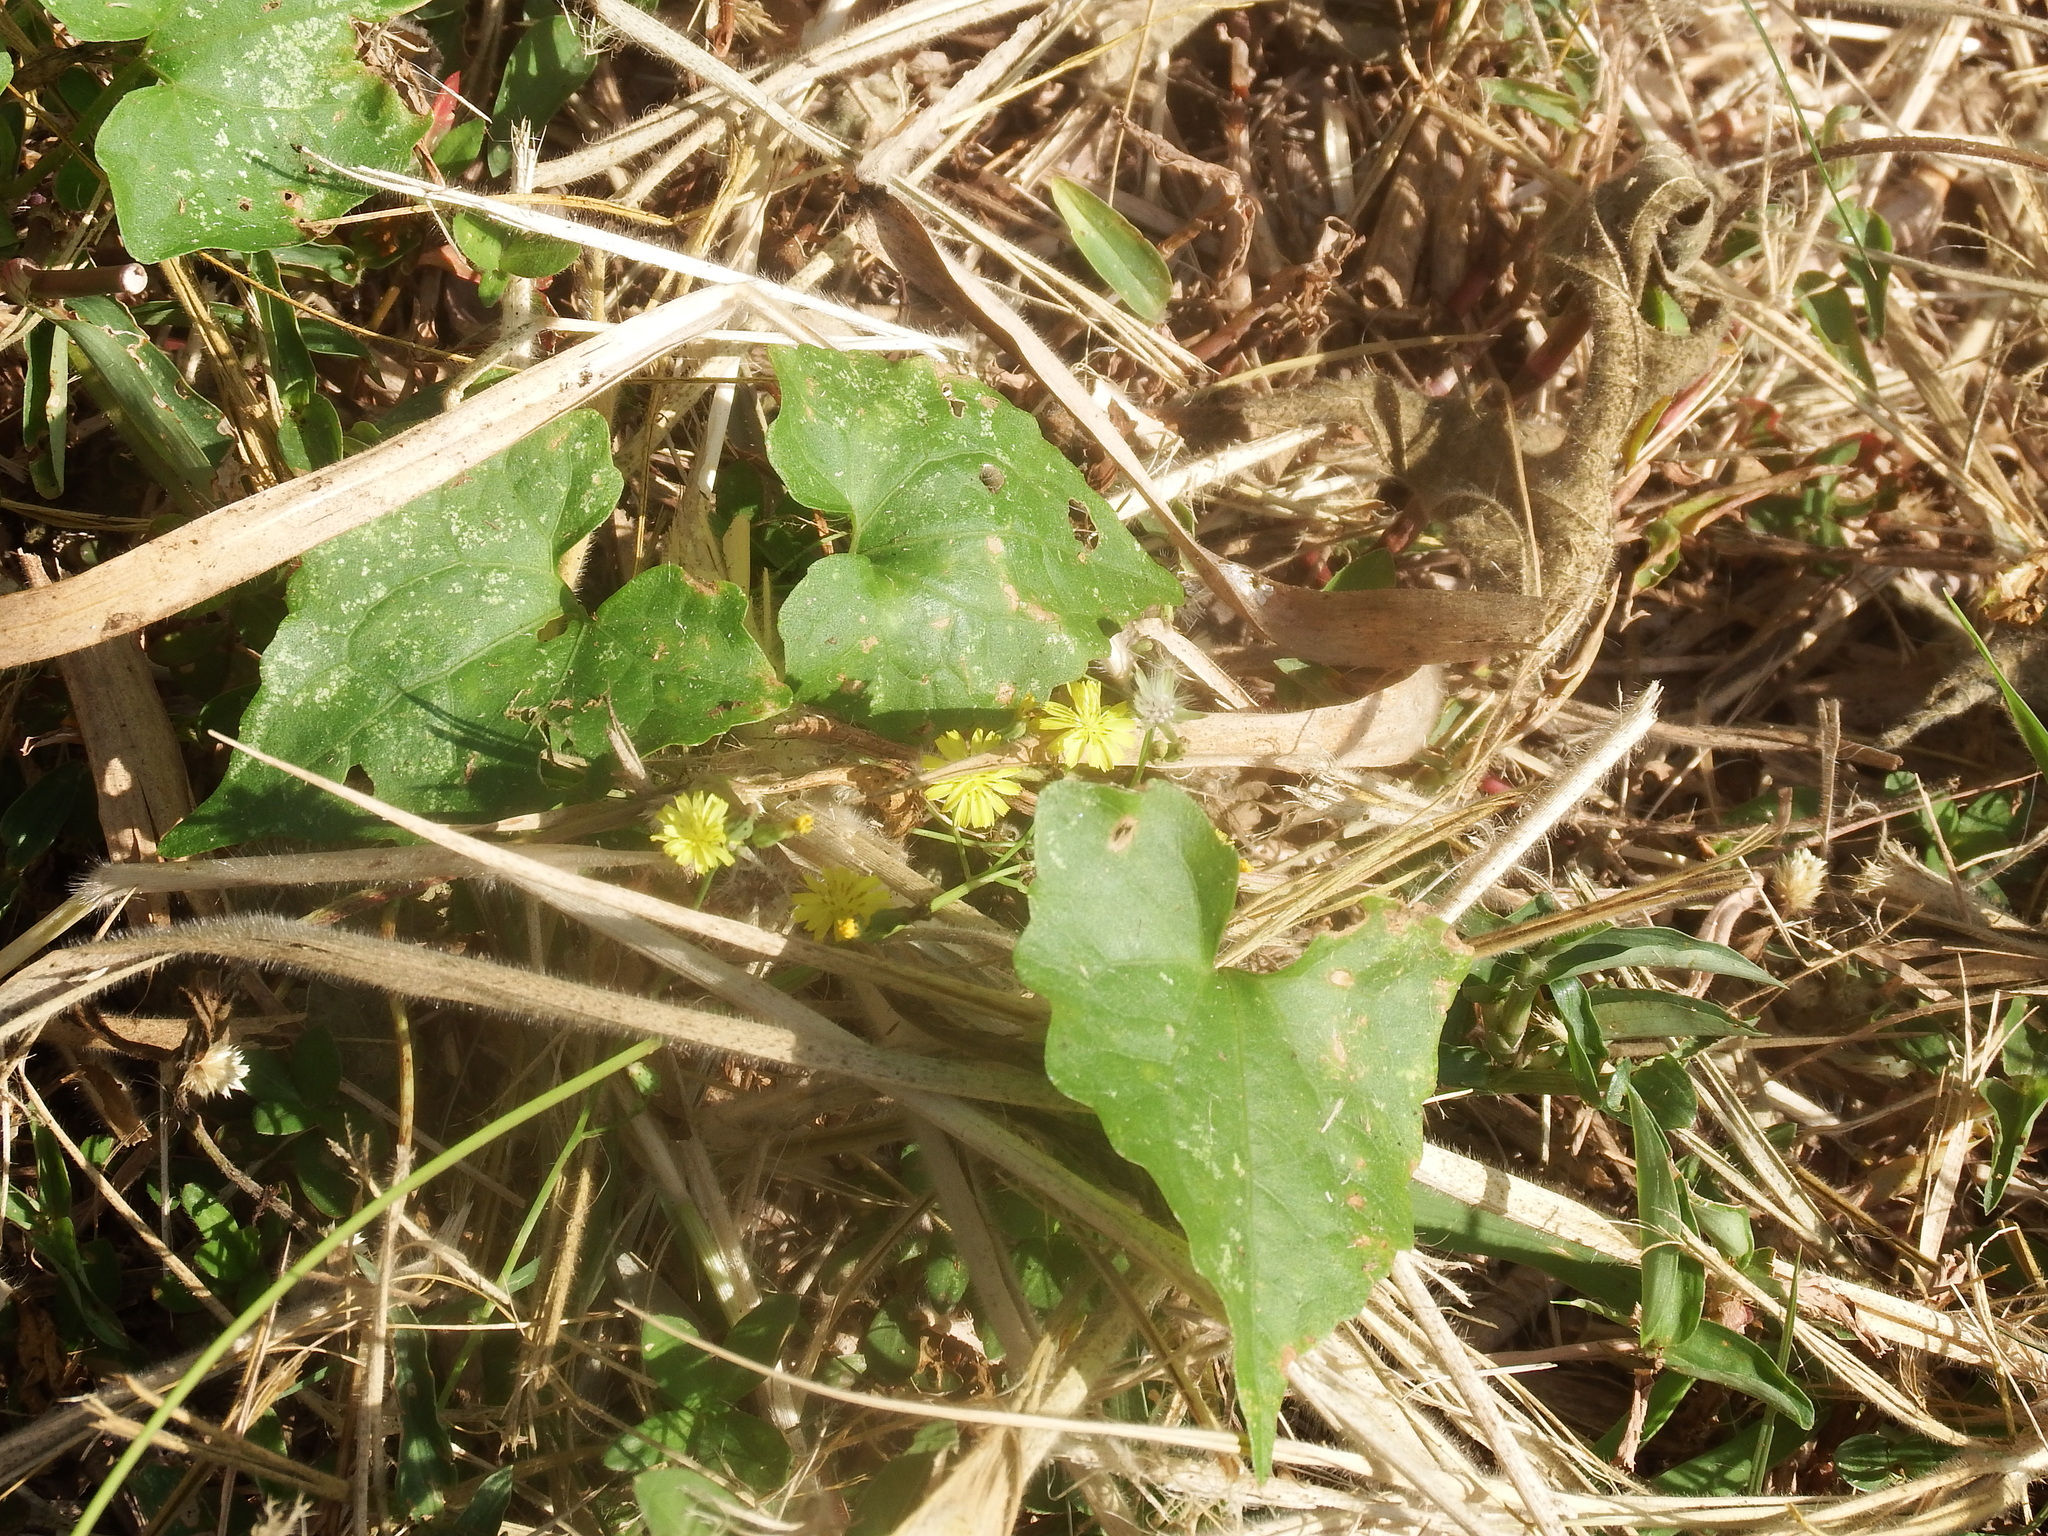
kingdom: Plantae
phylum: Tracheophyta
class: Magnoliopsida
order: Asterales
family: Asteraceae
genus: Mikania
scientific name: Mikania micrantha
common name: Mile-a-minute
